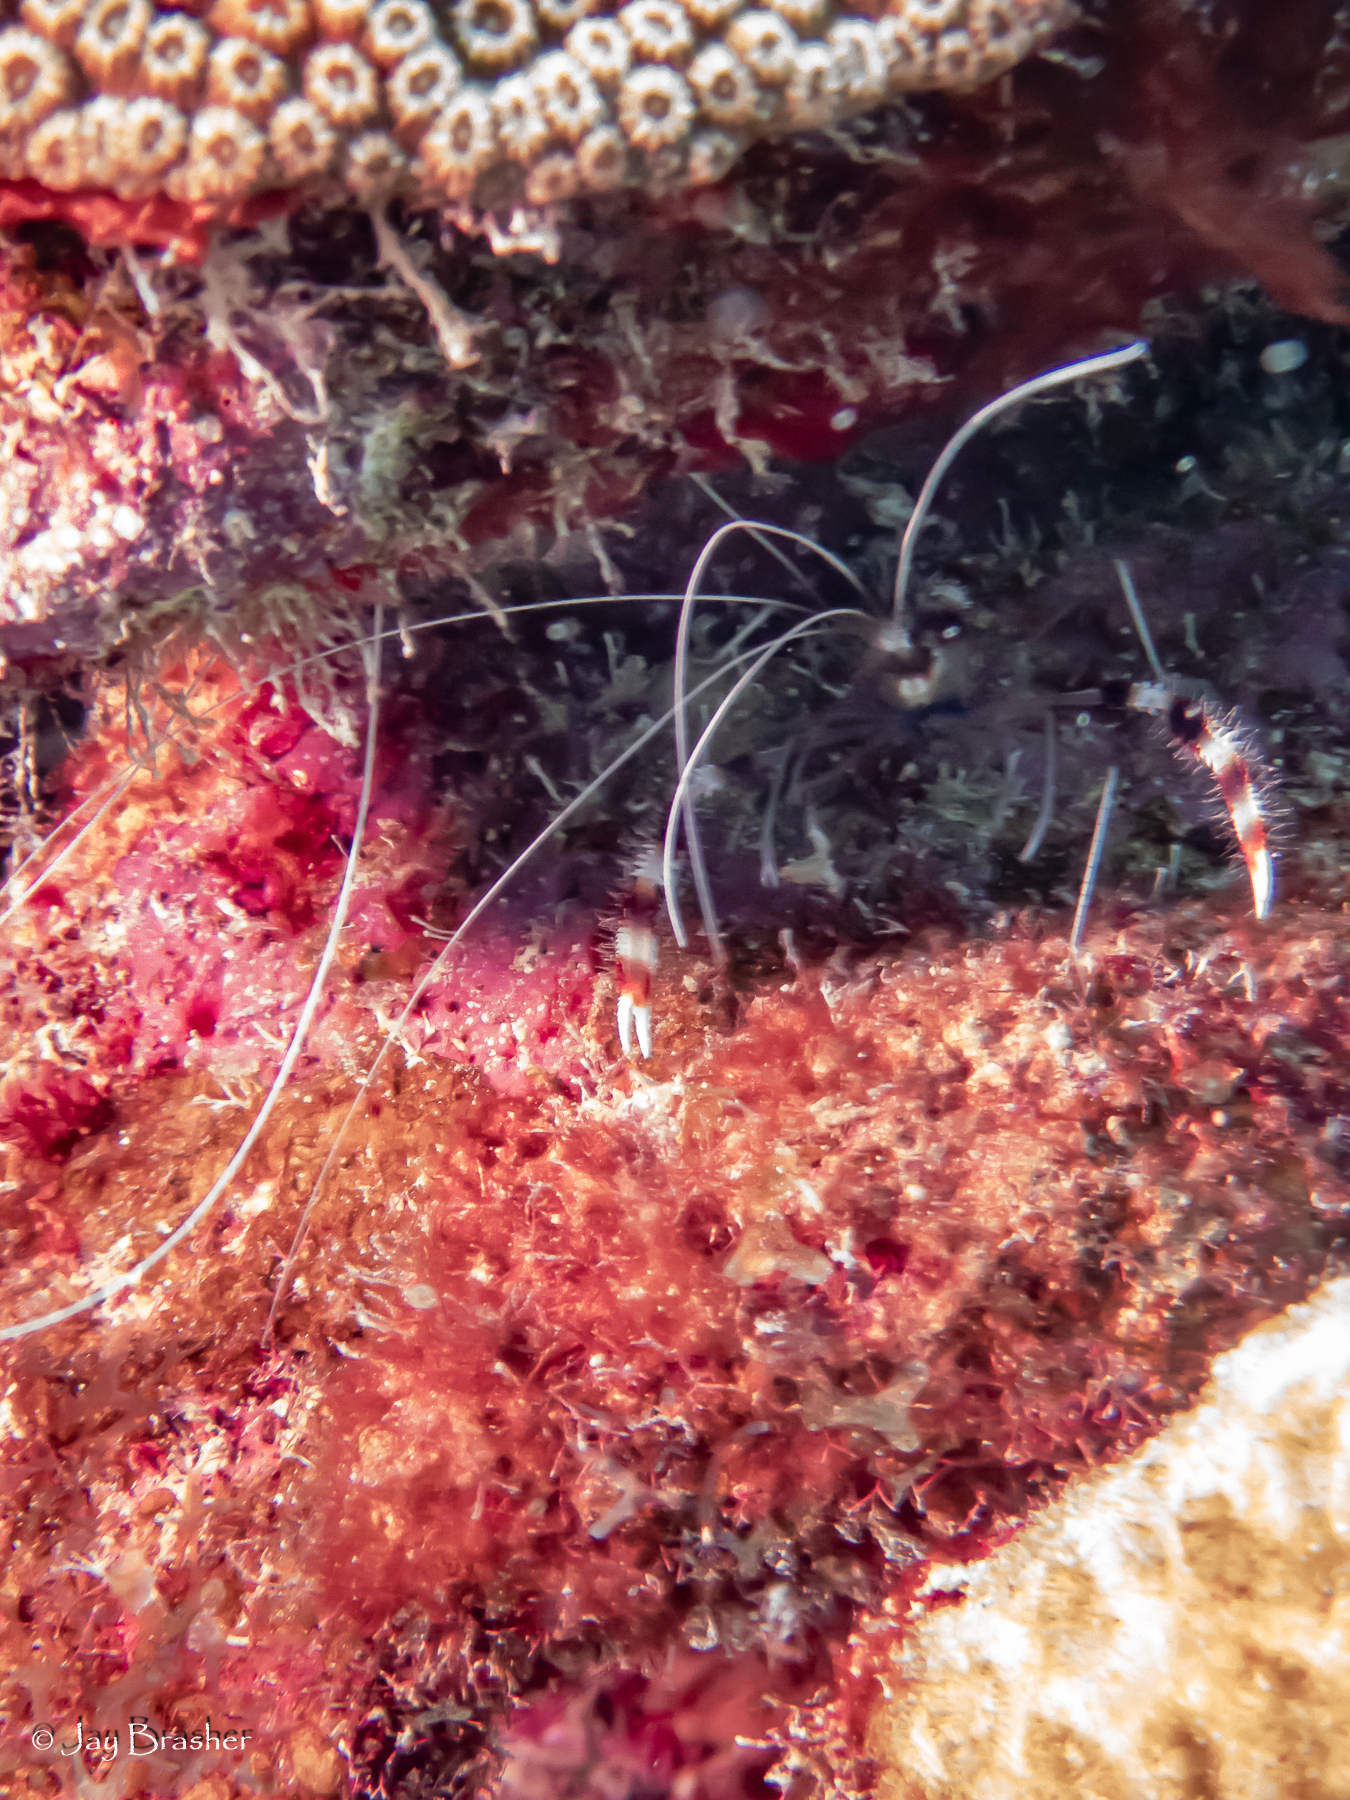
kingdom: Animalia
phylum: Arthropoda
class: Malacostraca
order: Decapoda
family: Stenopodidae
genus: Stenopus
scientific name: Stenopus hispidus
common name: Banded coral shrimp
